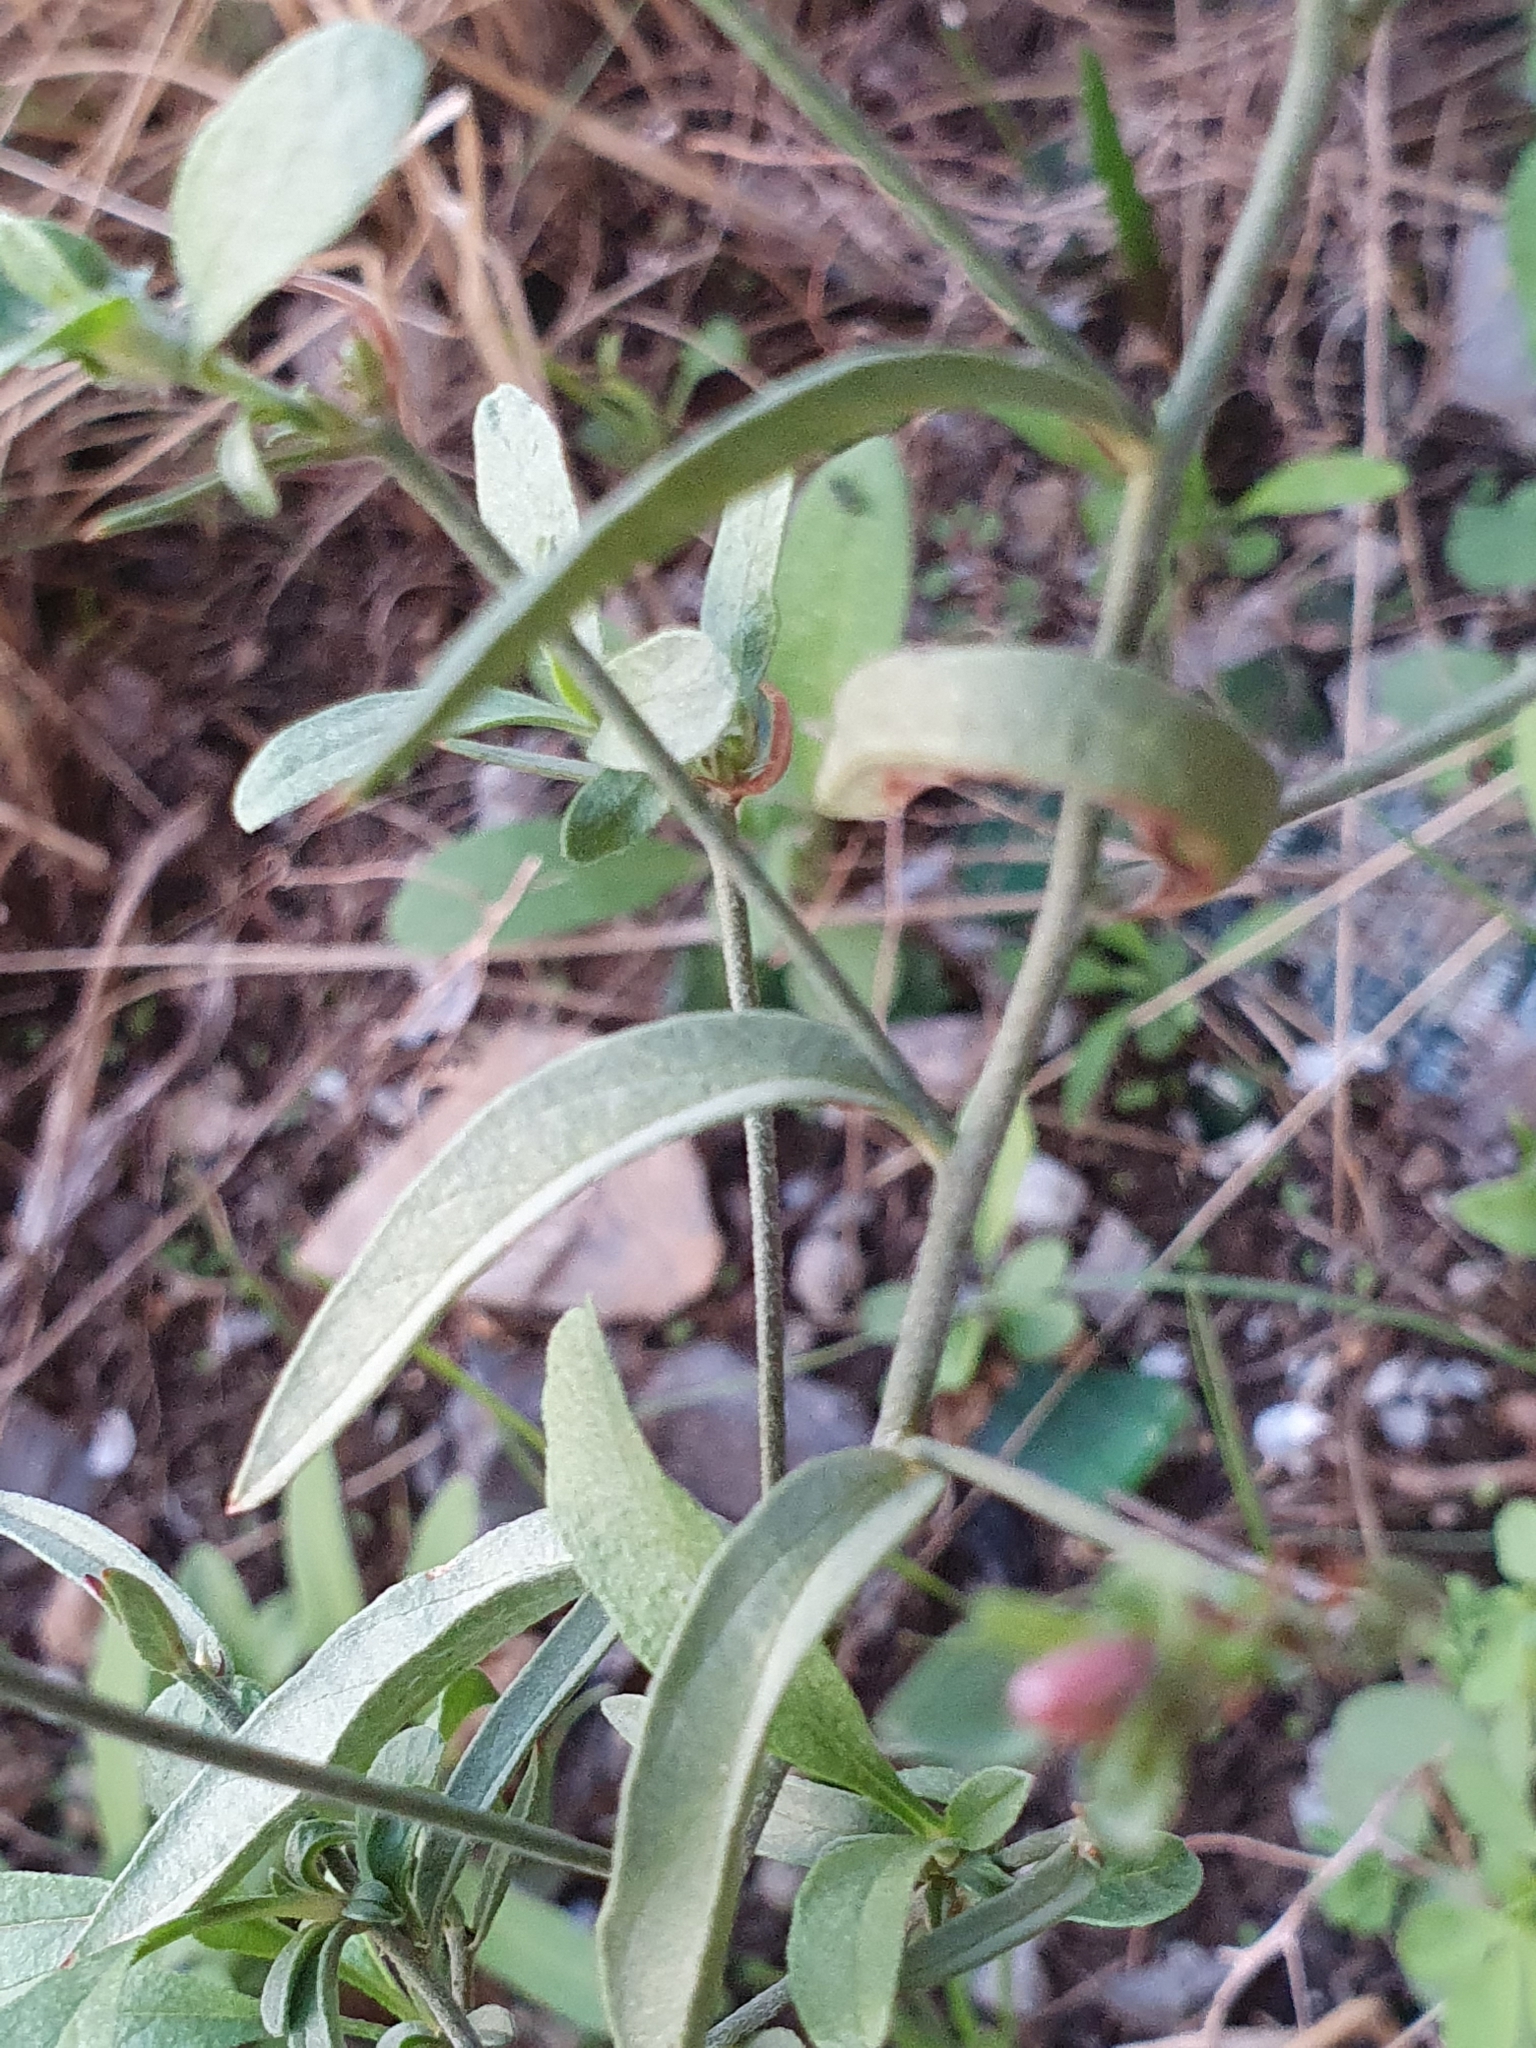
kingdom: Plantae
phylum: Tracheophyta
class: Magnoliopsida
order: Solanales
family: Convolvulaceae
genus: Convolvulus
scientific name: Convolvulus cantabrica
